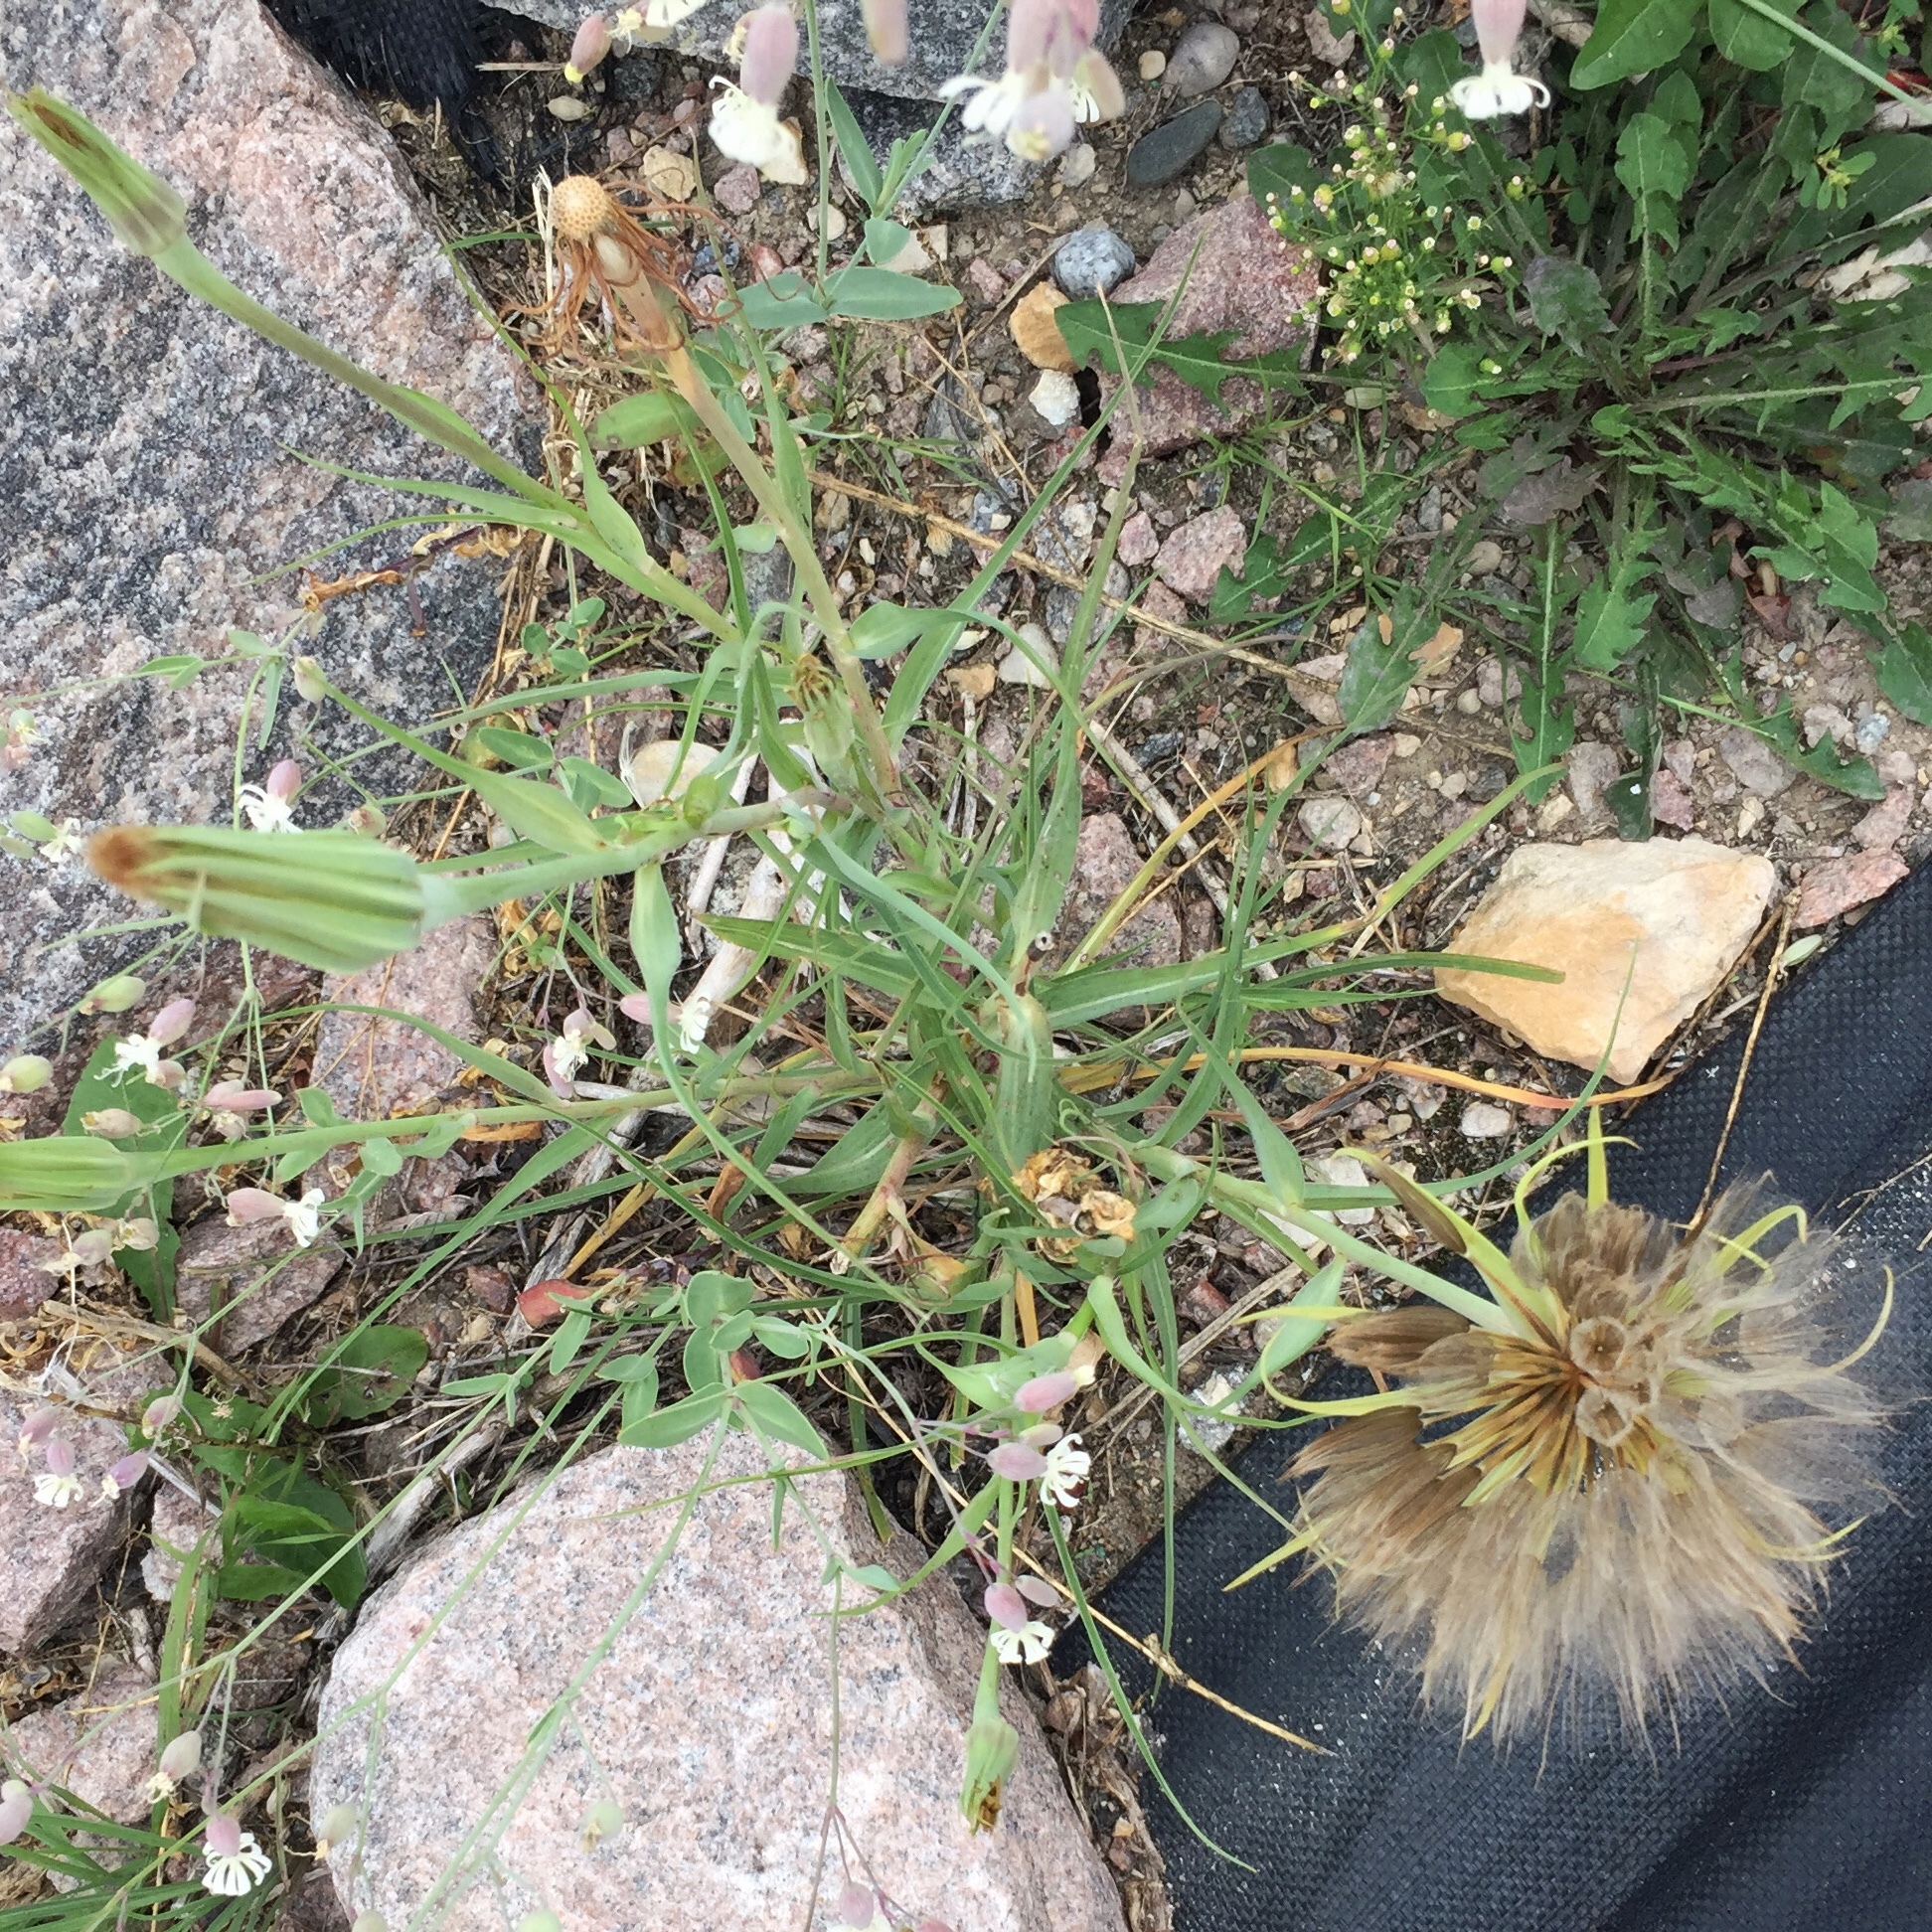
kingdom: Plantae
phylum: Tracheophyta
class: Magnoliopsida
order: Asterales
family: Asteraceae
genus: Tragopogon
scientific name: Tragopogon dubius
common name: Yellow salsify
